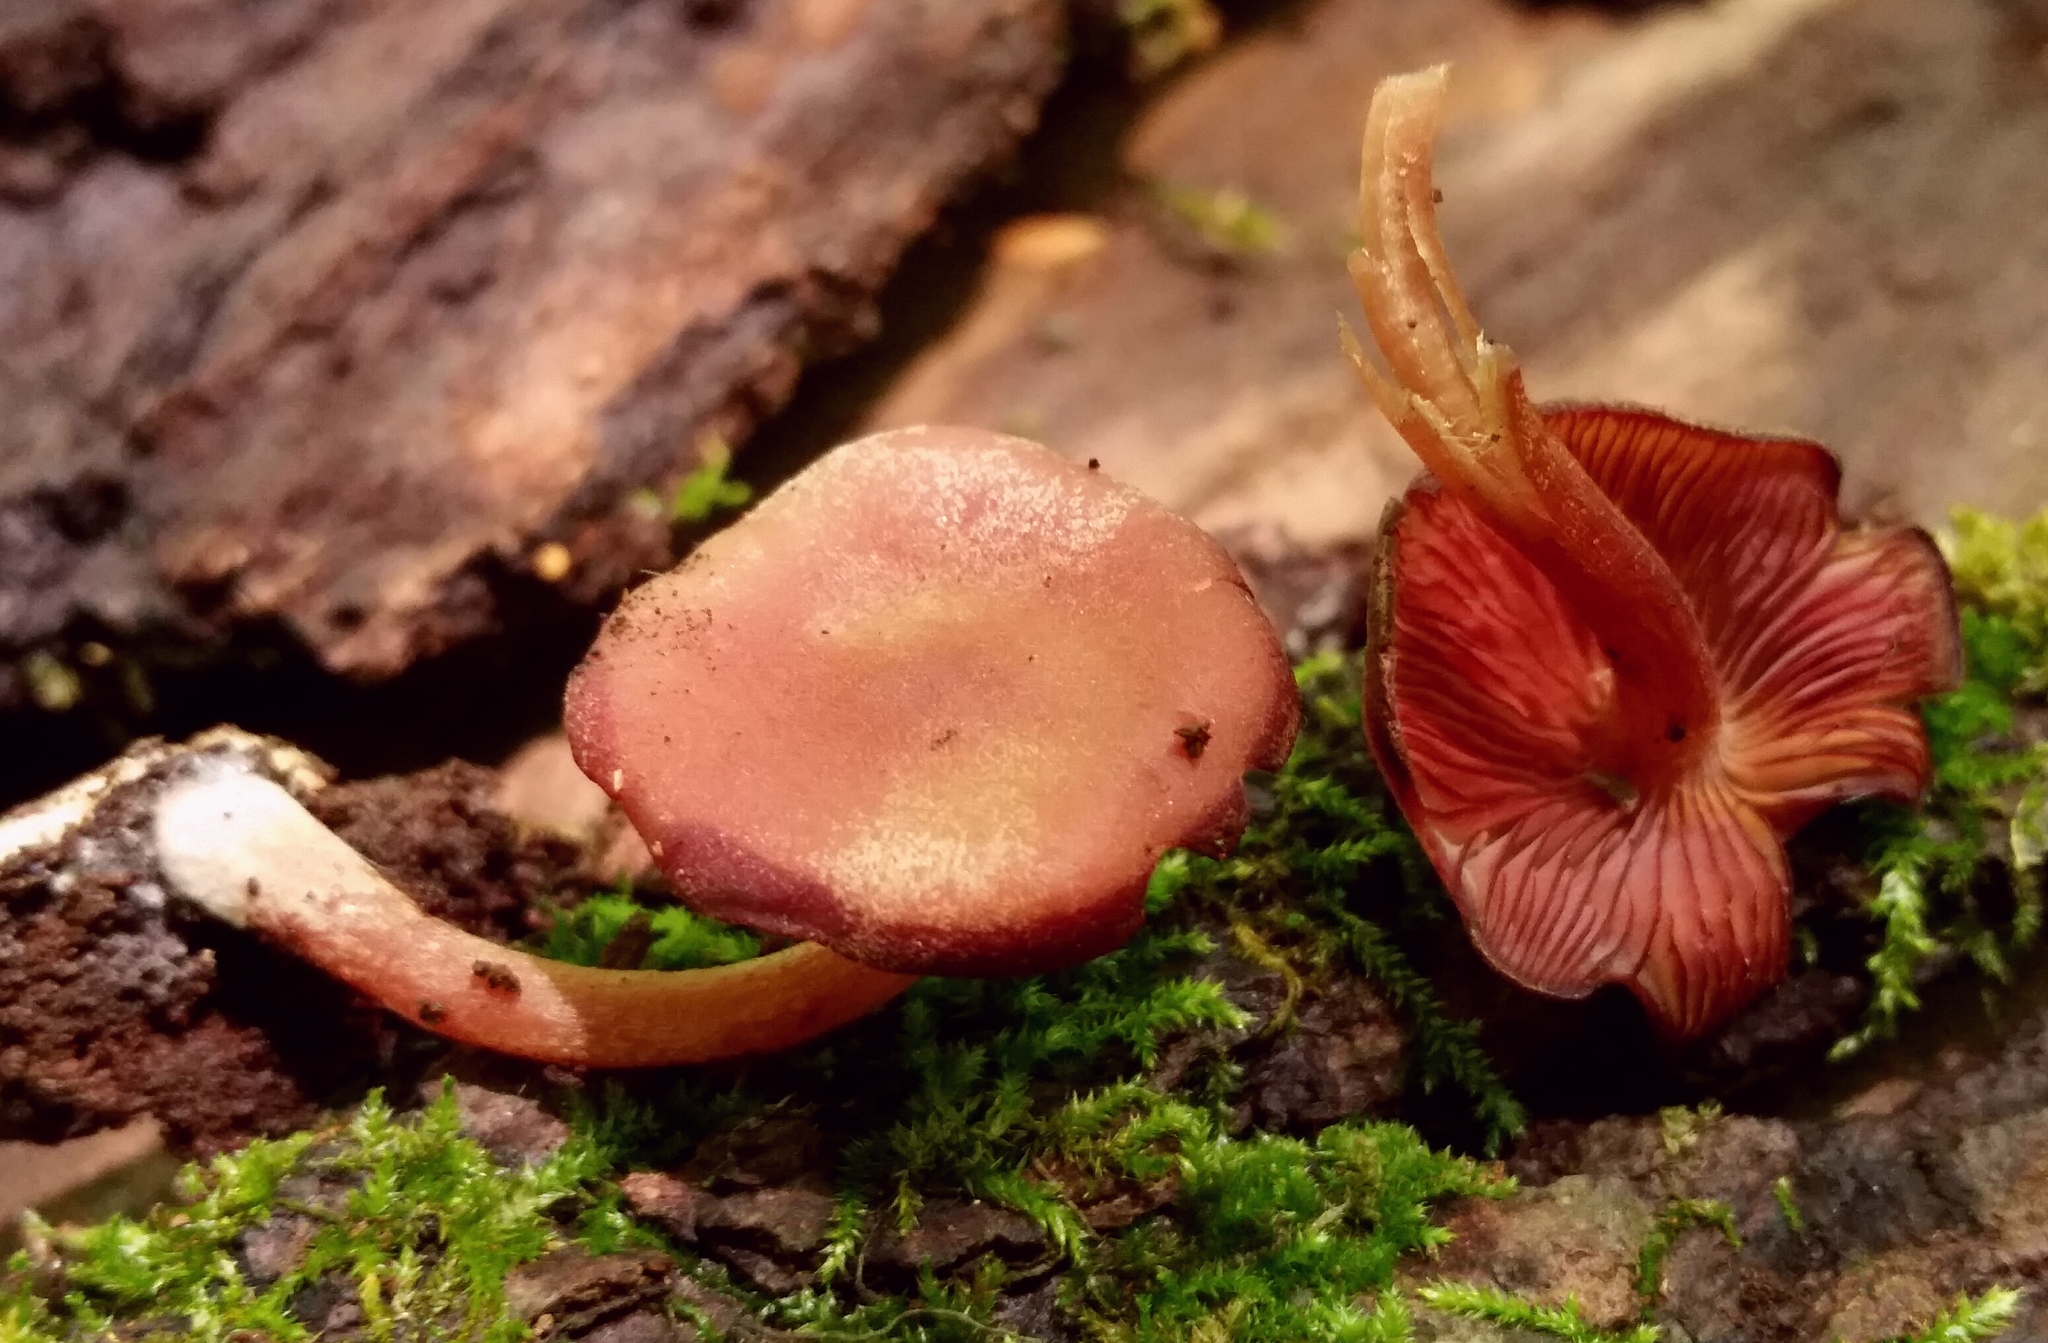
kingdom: Fungi
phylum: Basidiomycota
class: Agaricomycetes
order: Agaricales
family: Callistosporiaceae
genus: Callistosporium
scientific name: Callistosporium purpureomarginatum
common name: Purple-edged lute
